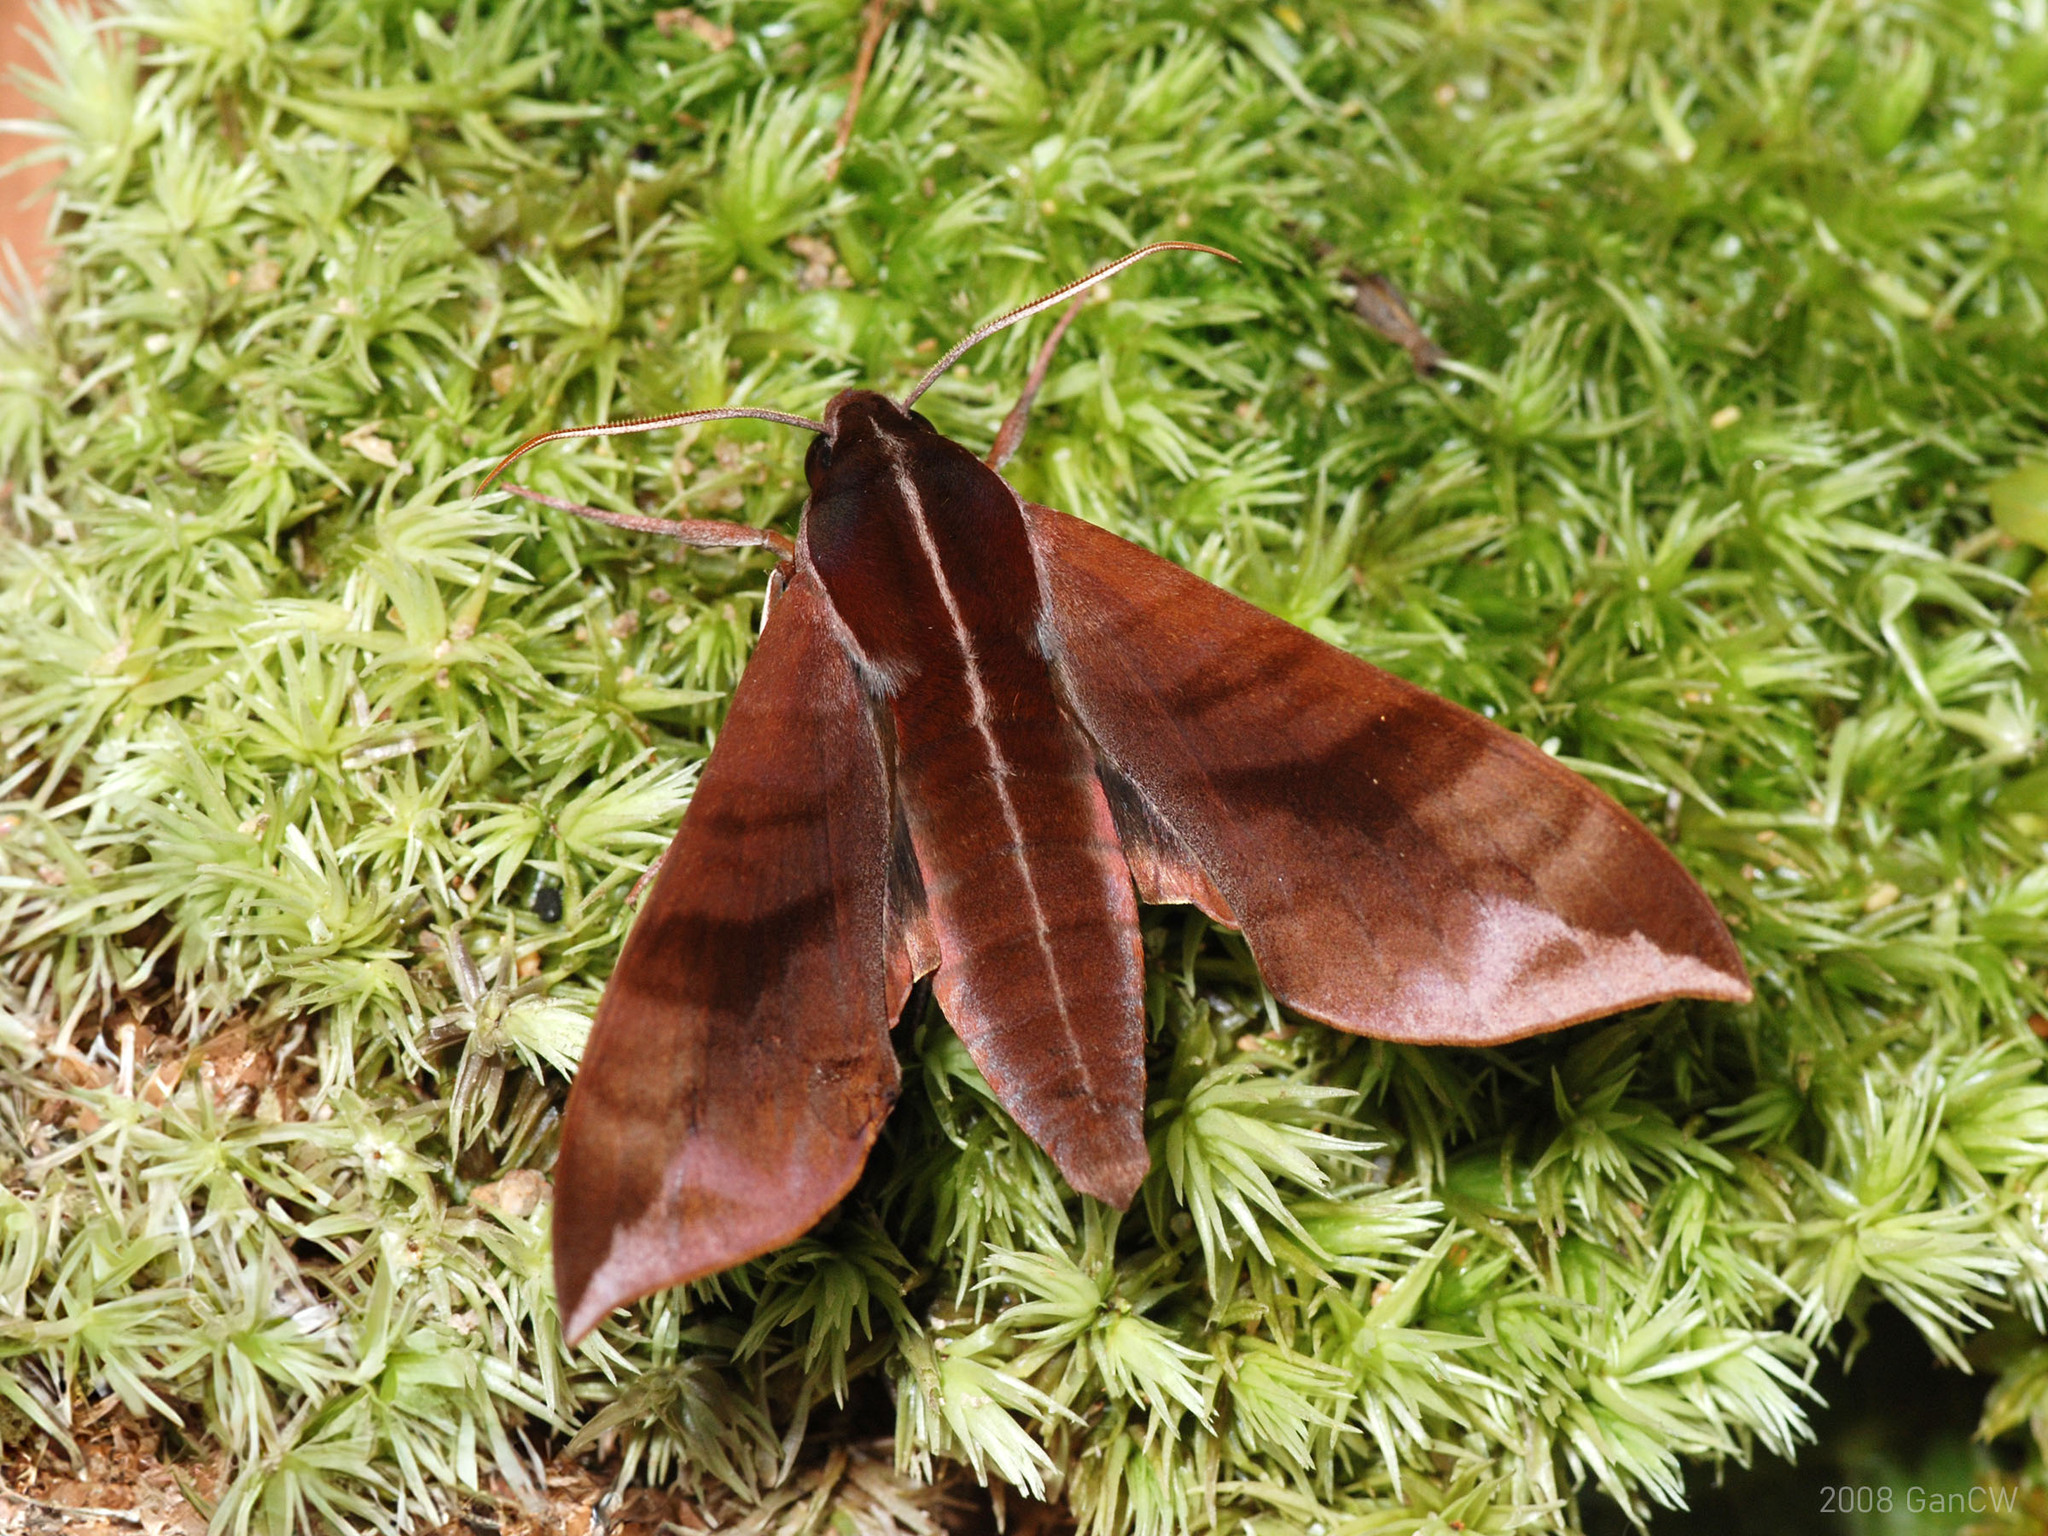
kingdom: Animalia
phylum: Arthropoda
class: Insecta
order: Lepidoptera
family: Sphingidae
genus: Ampelophaga
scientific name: Ampelophaga rubiginosa
